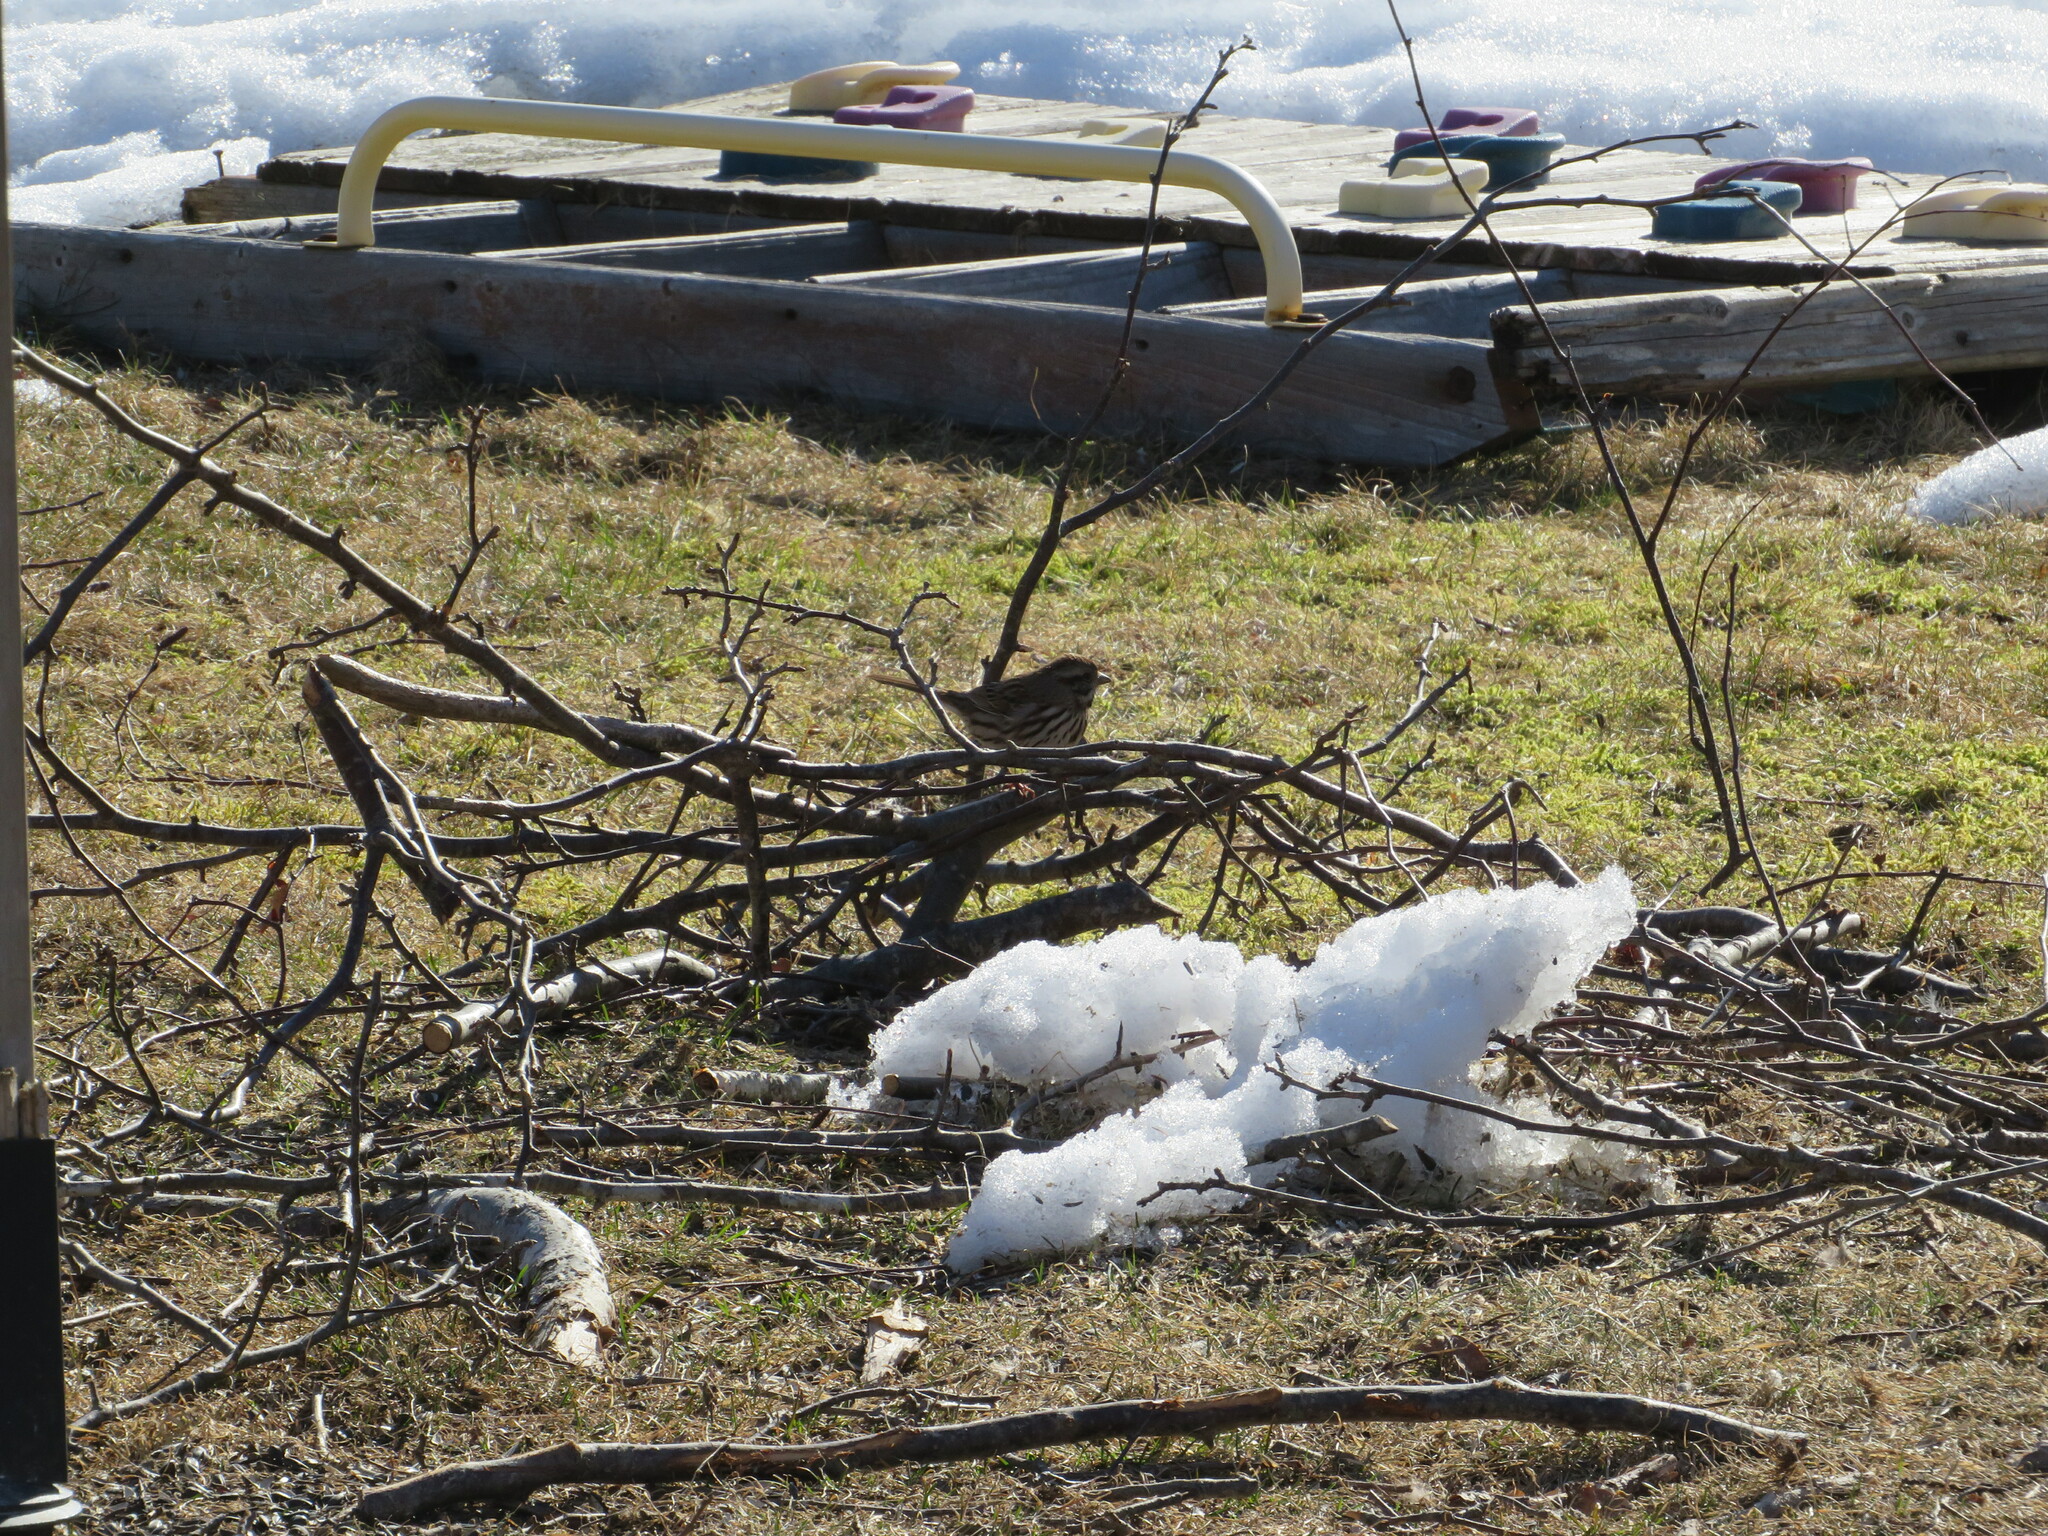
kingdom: Animalia
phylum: Chordata
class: Aves
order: Passeriformes
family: Passerellidae
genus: Melospiza
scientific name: Melospiza melodia
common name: Song sparrow
